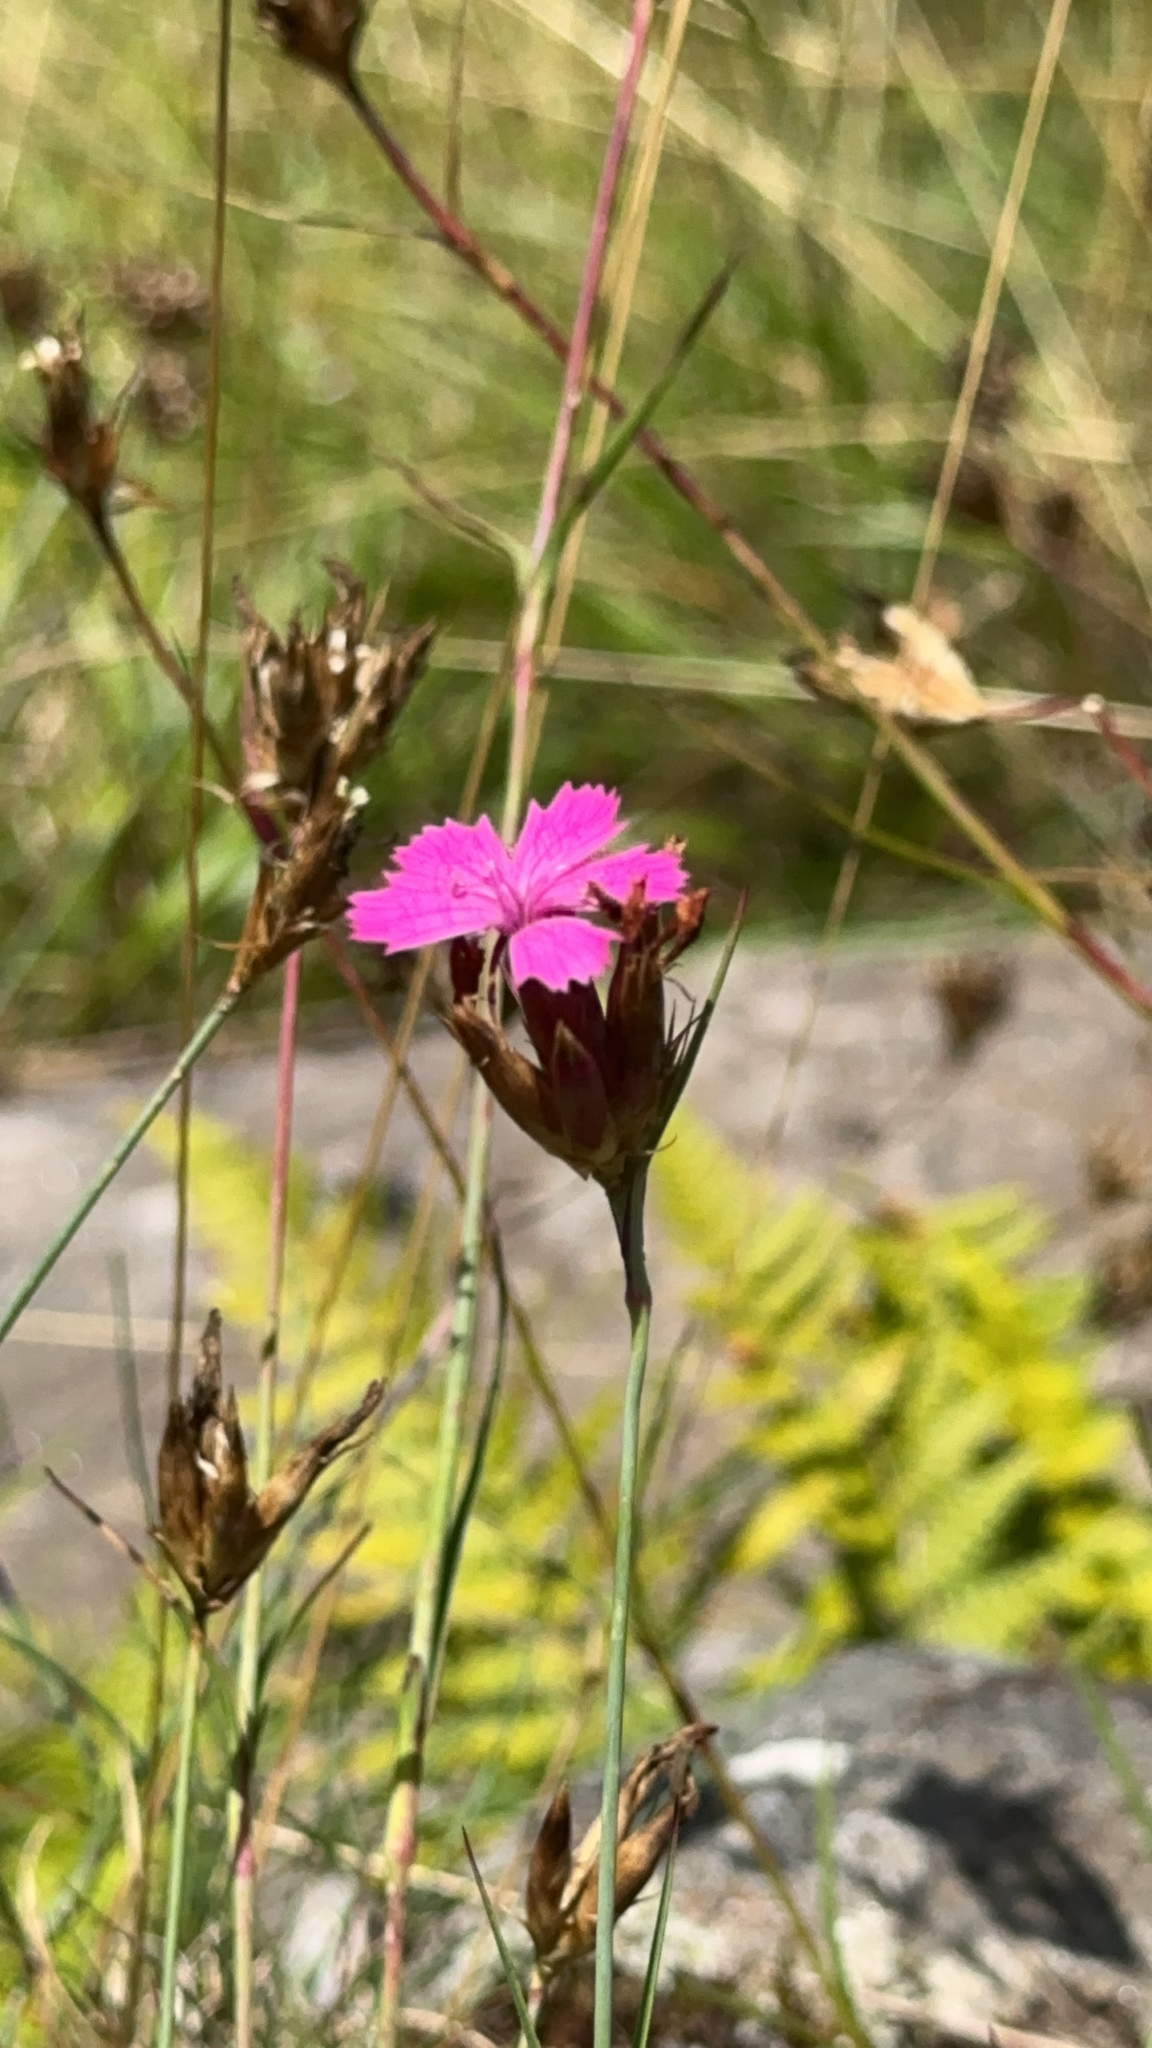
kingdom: Plantae
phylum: Tracheophyta
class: Magnoliopsida
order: Caryophyllales
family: Caryophyllaceae
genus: Dianthus
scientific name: Dianthus carthusianorum
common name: Carthusian pink
